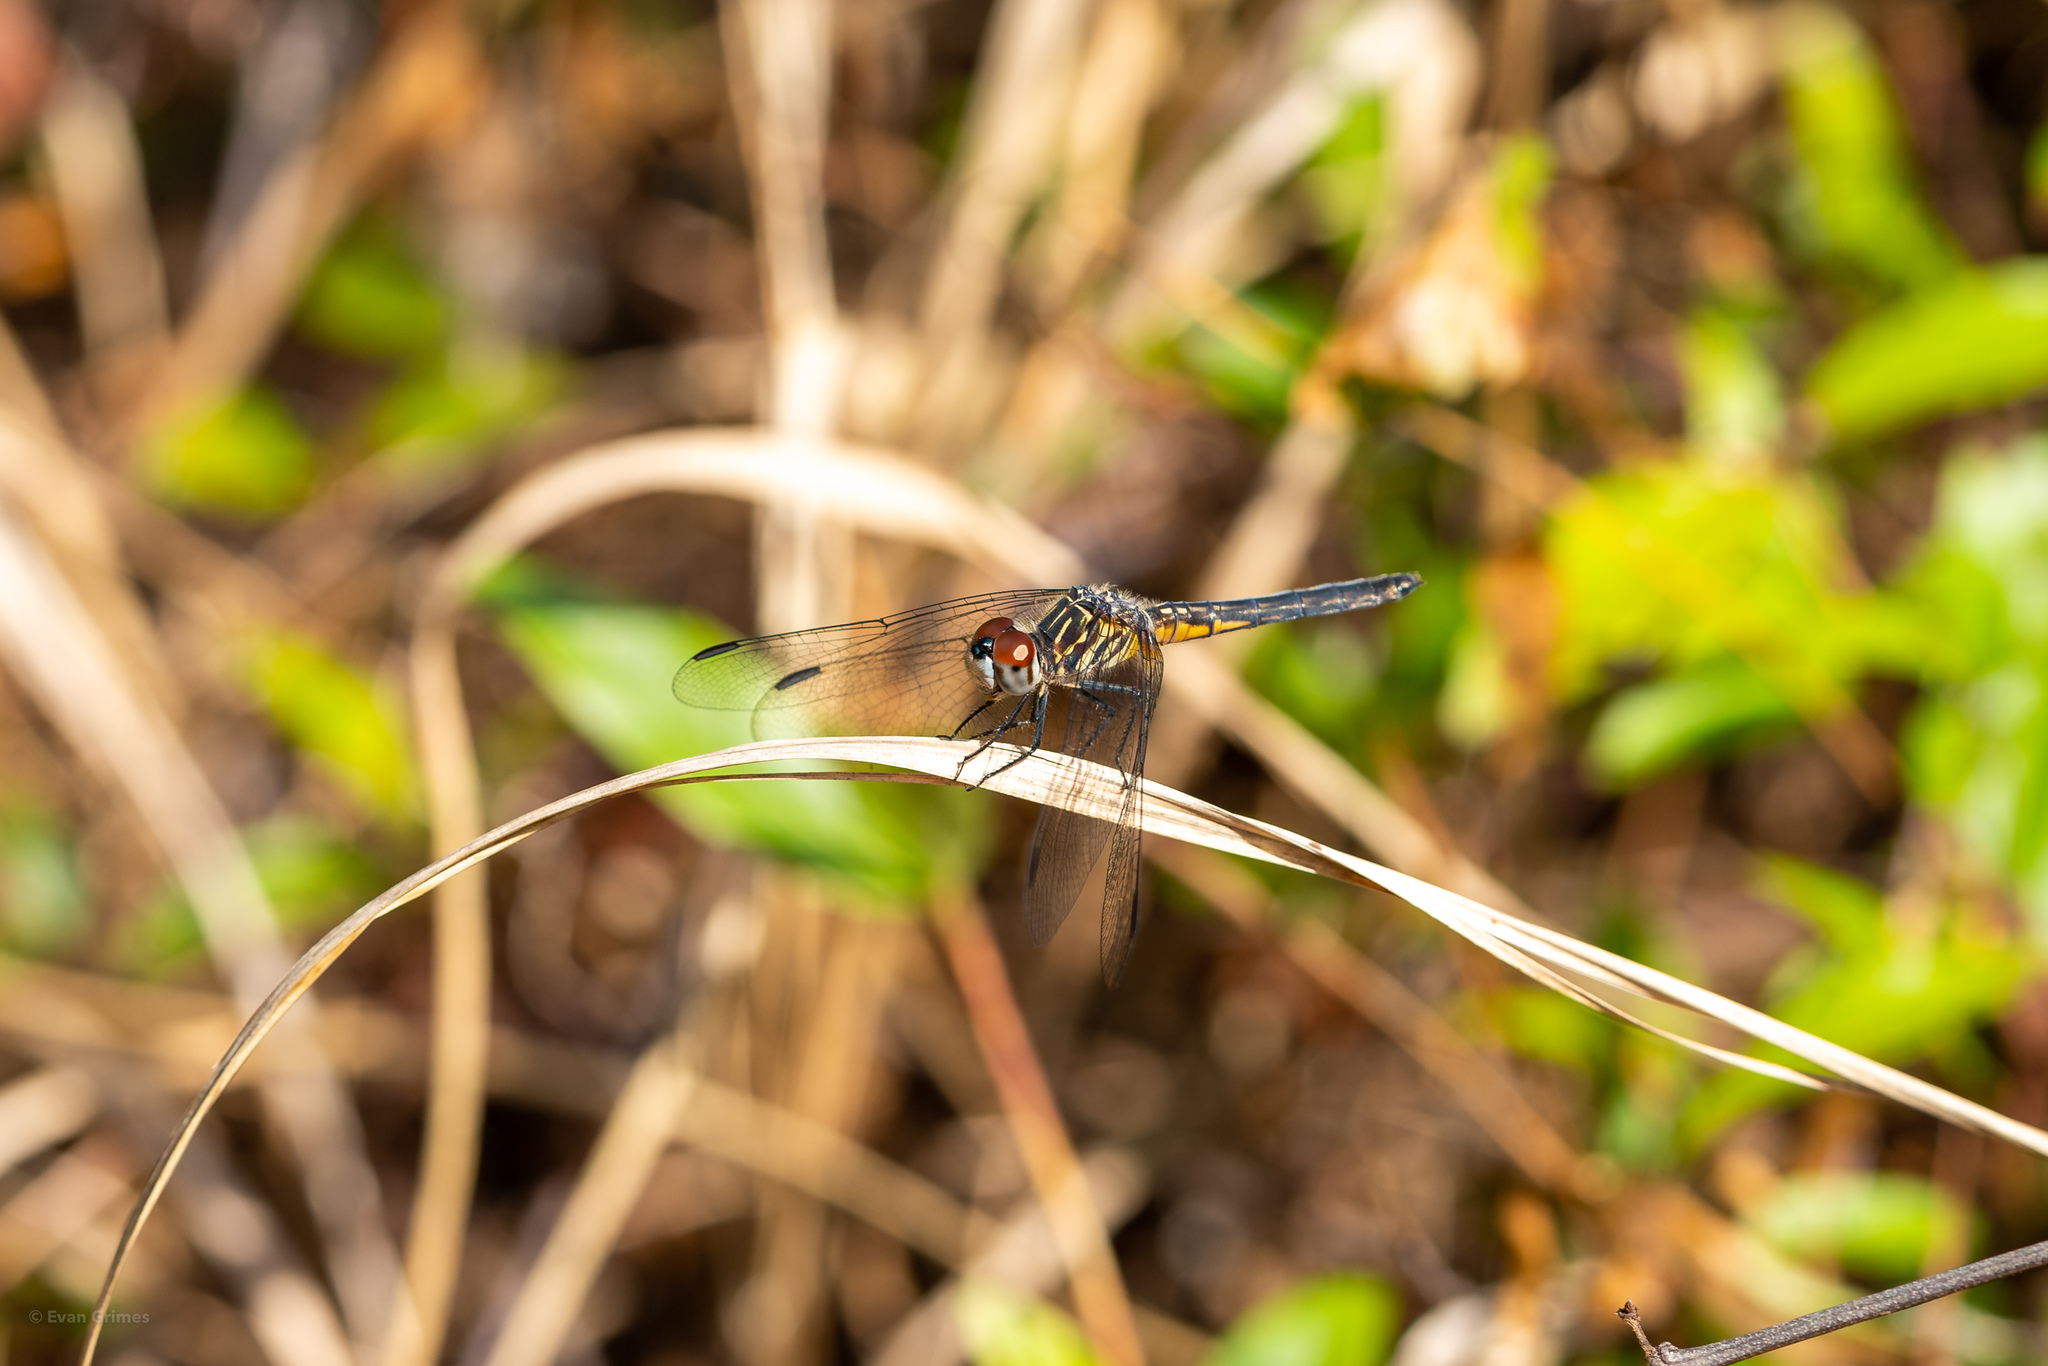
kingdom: Animalia
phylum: Arthropoda
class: Insecta
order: Odonata
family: Libellulidae
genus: Pachydiplax
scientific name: Pachydiplax longipennis
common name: Blue dasher
